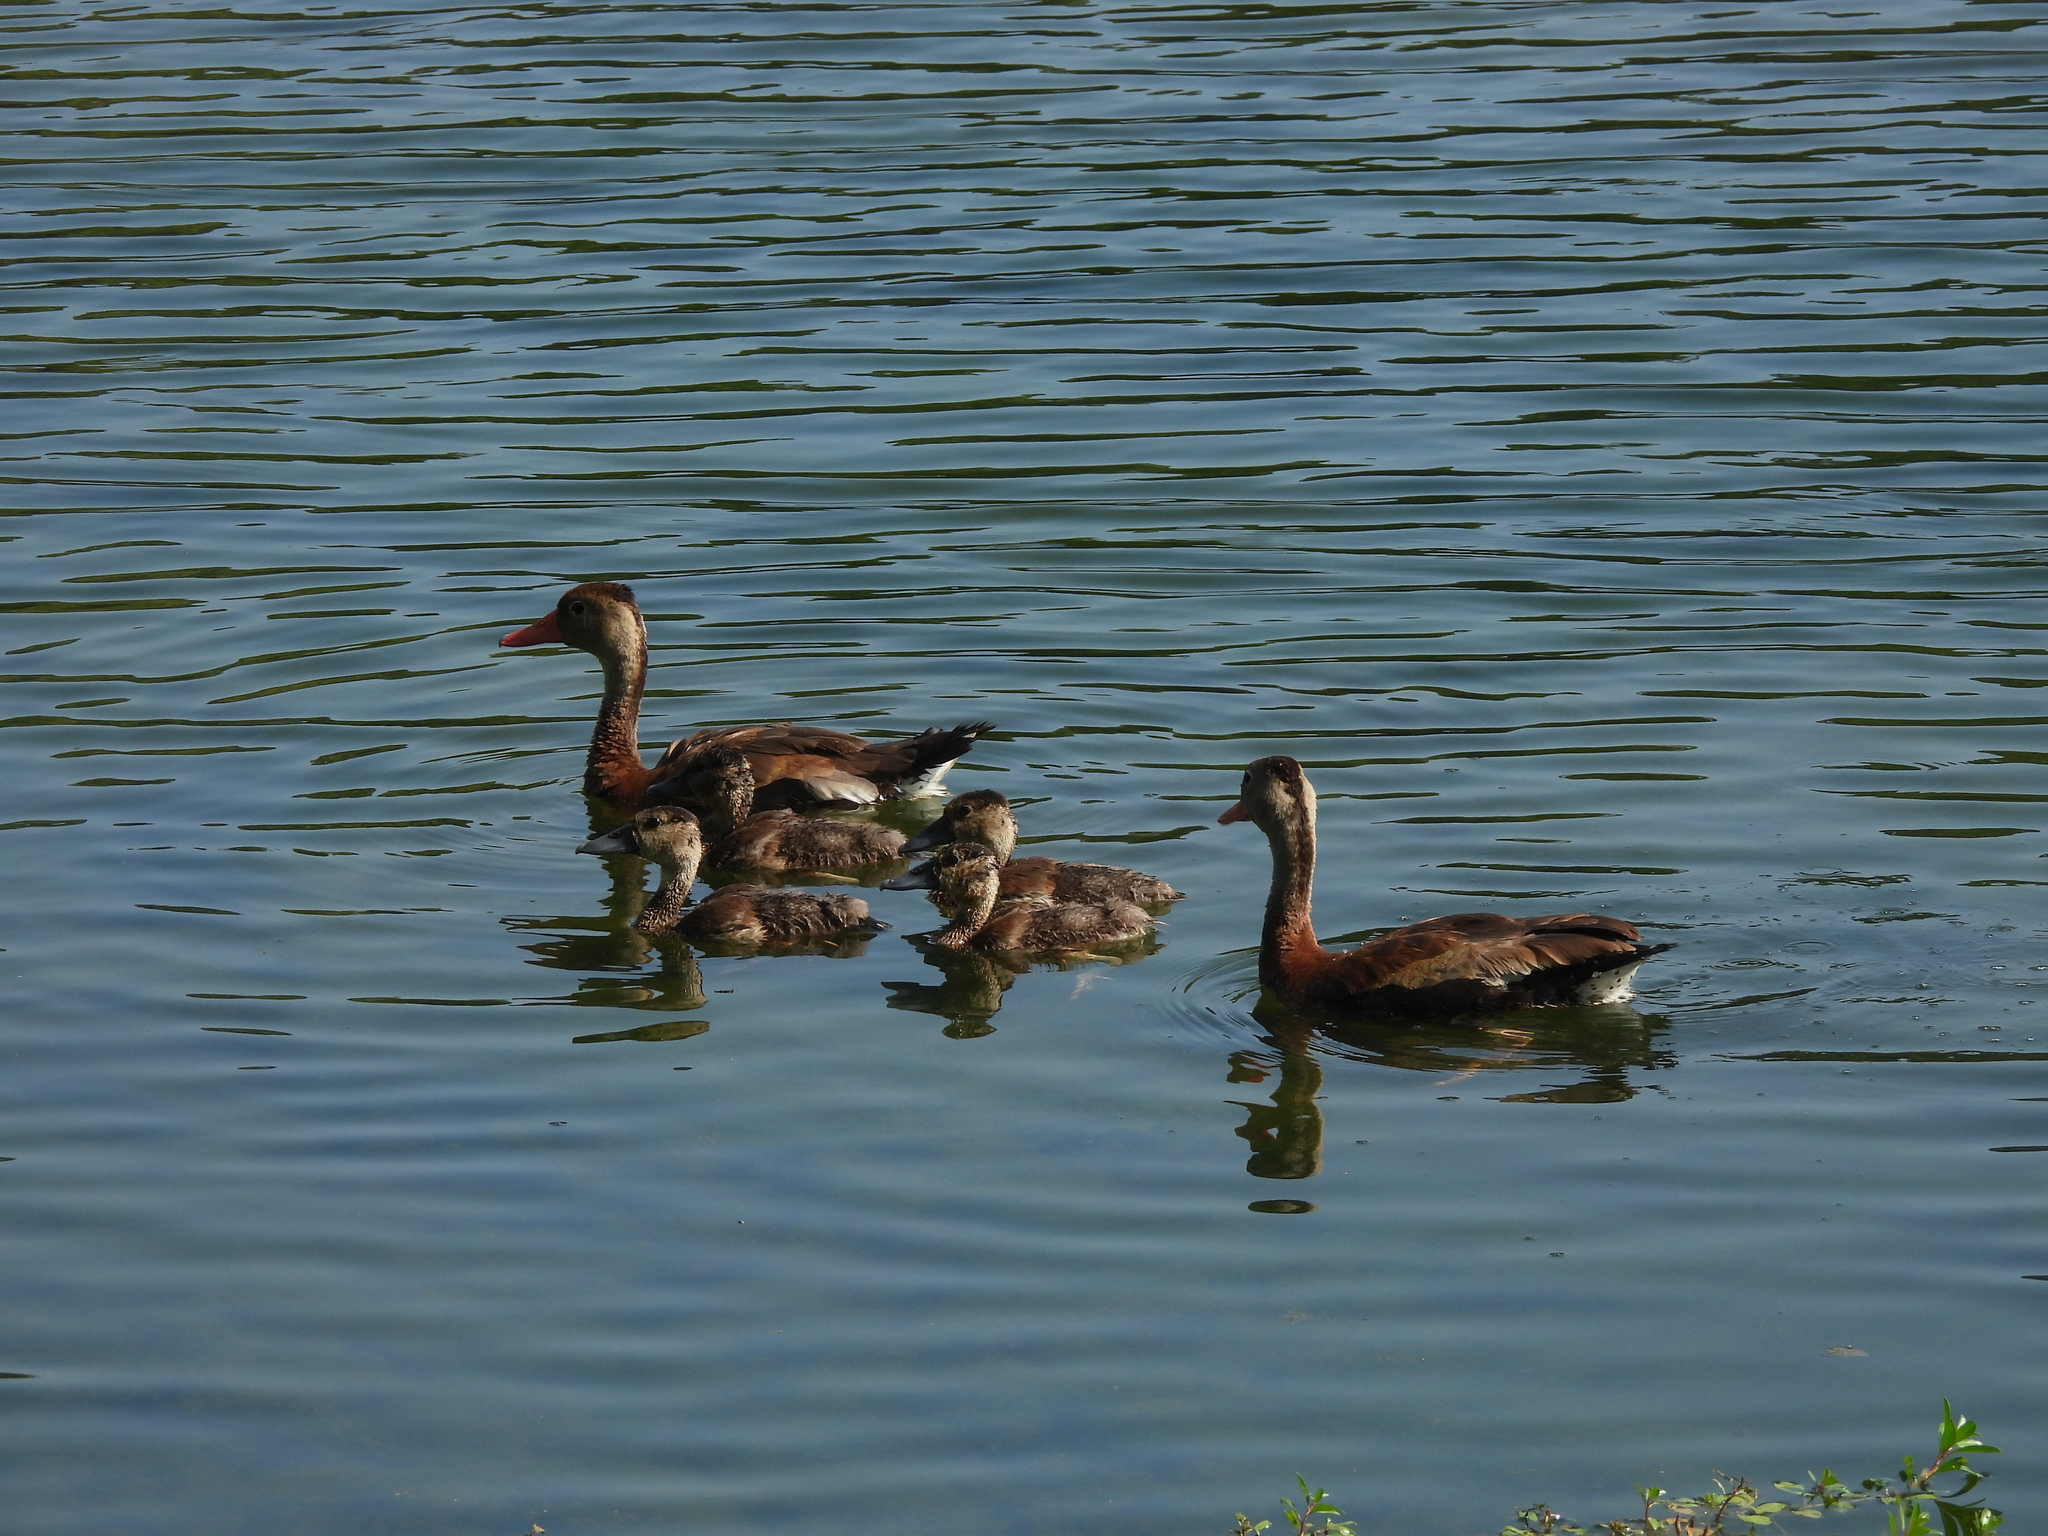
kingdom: Animalia
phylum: Chordata
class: Aves
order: Anseriformes
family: Anatidae
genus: Dendrocygna
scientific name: Dendrocygna autumnalis
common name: Black-bellied whistling duck
